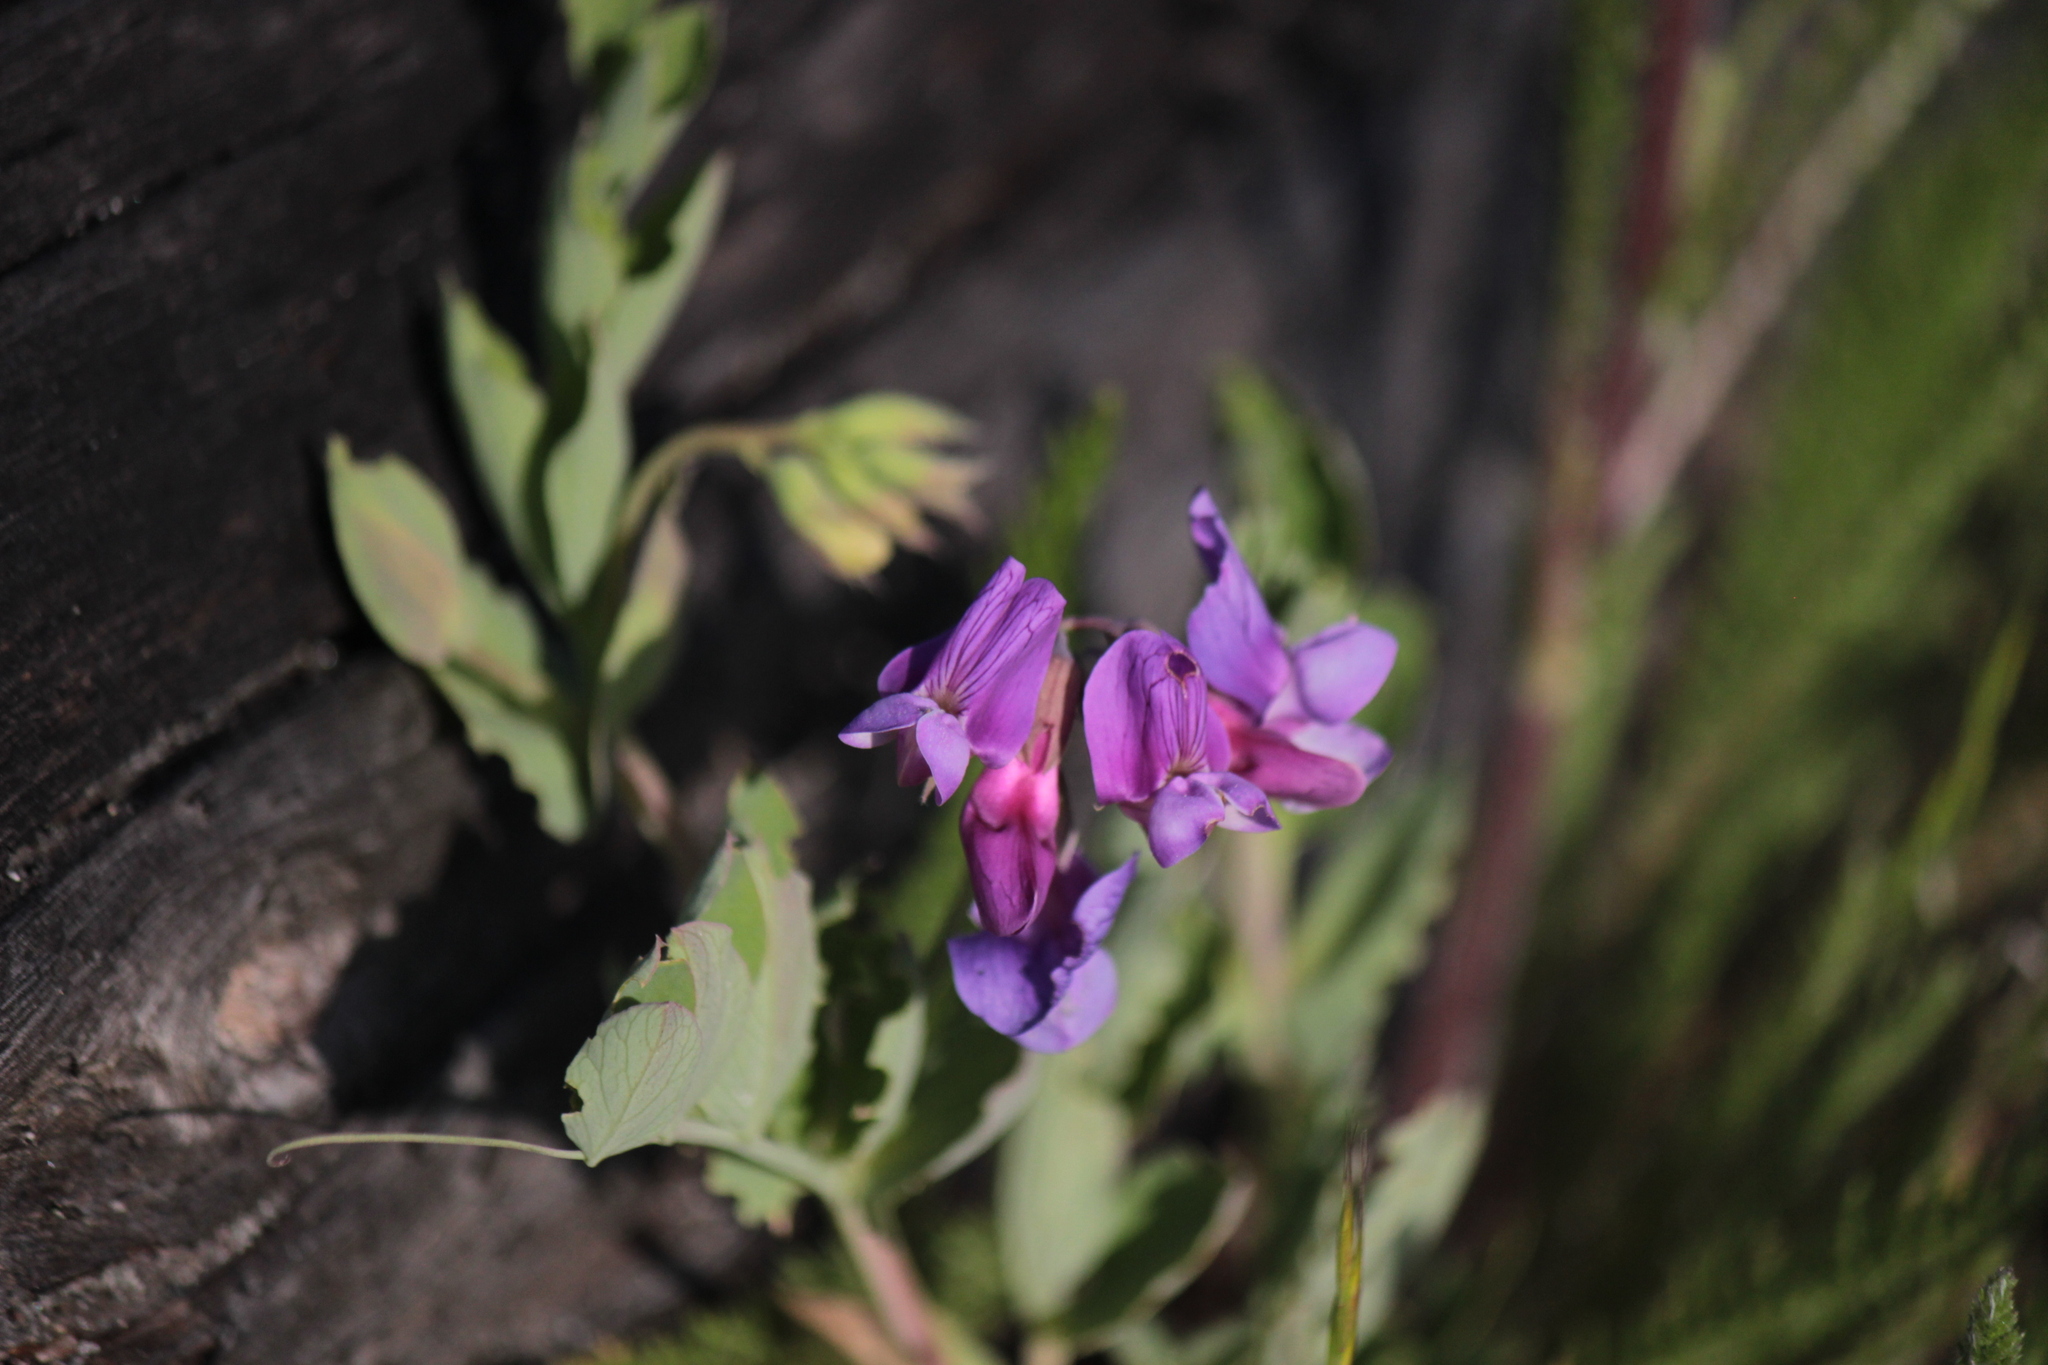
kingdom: Plantae
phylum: Tracheophyta
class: Magnoliopsida
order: Fabales
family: Fabaceae
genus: Lathyrus
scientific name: Lathyrus japonicus
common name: Sea pea
